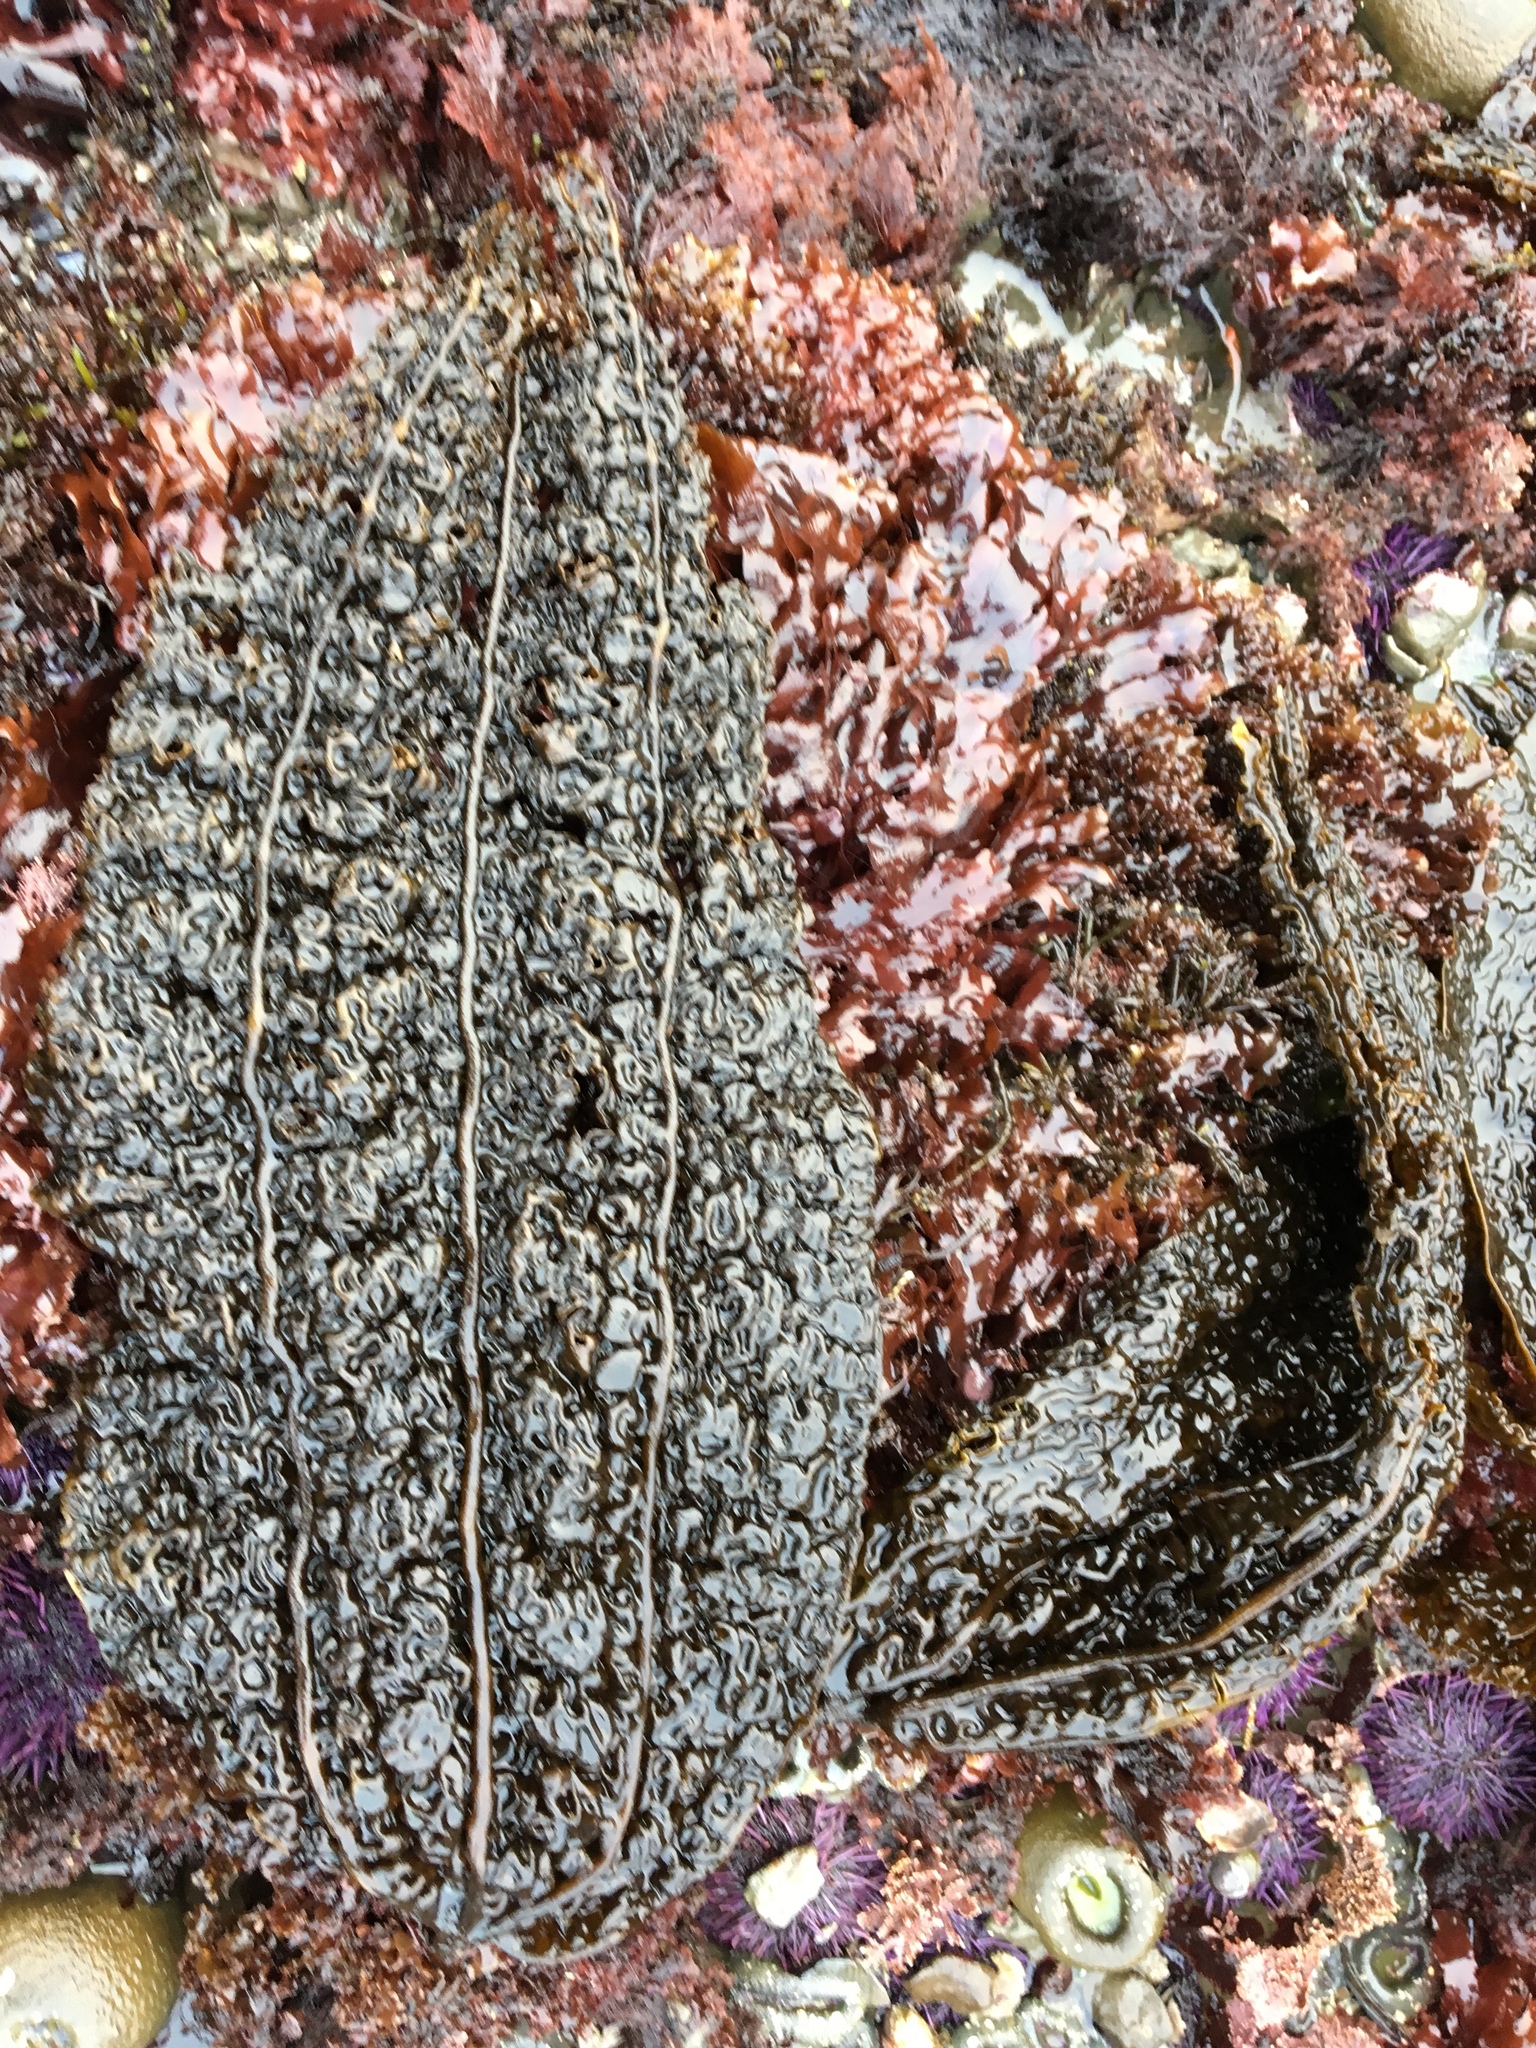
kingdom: Chromista
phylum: Ochrophyta
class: Phaeophyceae
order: Laminariales
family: Costariaceae
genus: Costaria
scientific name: Costaria costata
